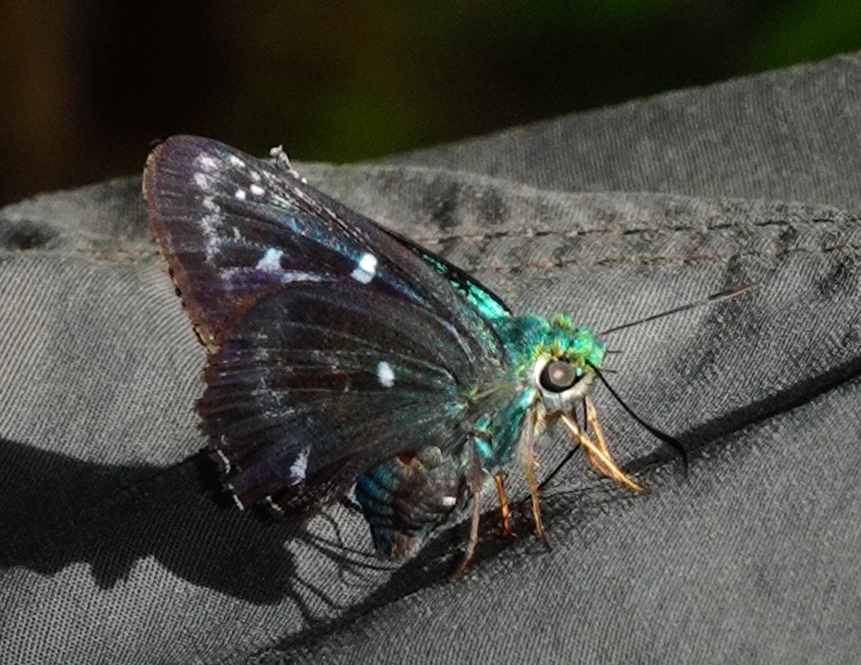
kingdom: Animalia
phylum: Arthropoda
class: Insecta
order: Lepidoptera
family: Hesperiidae
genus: Allora
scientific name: Allora major
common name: Greater peacock awl
